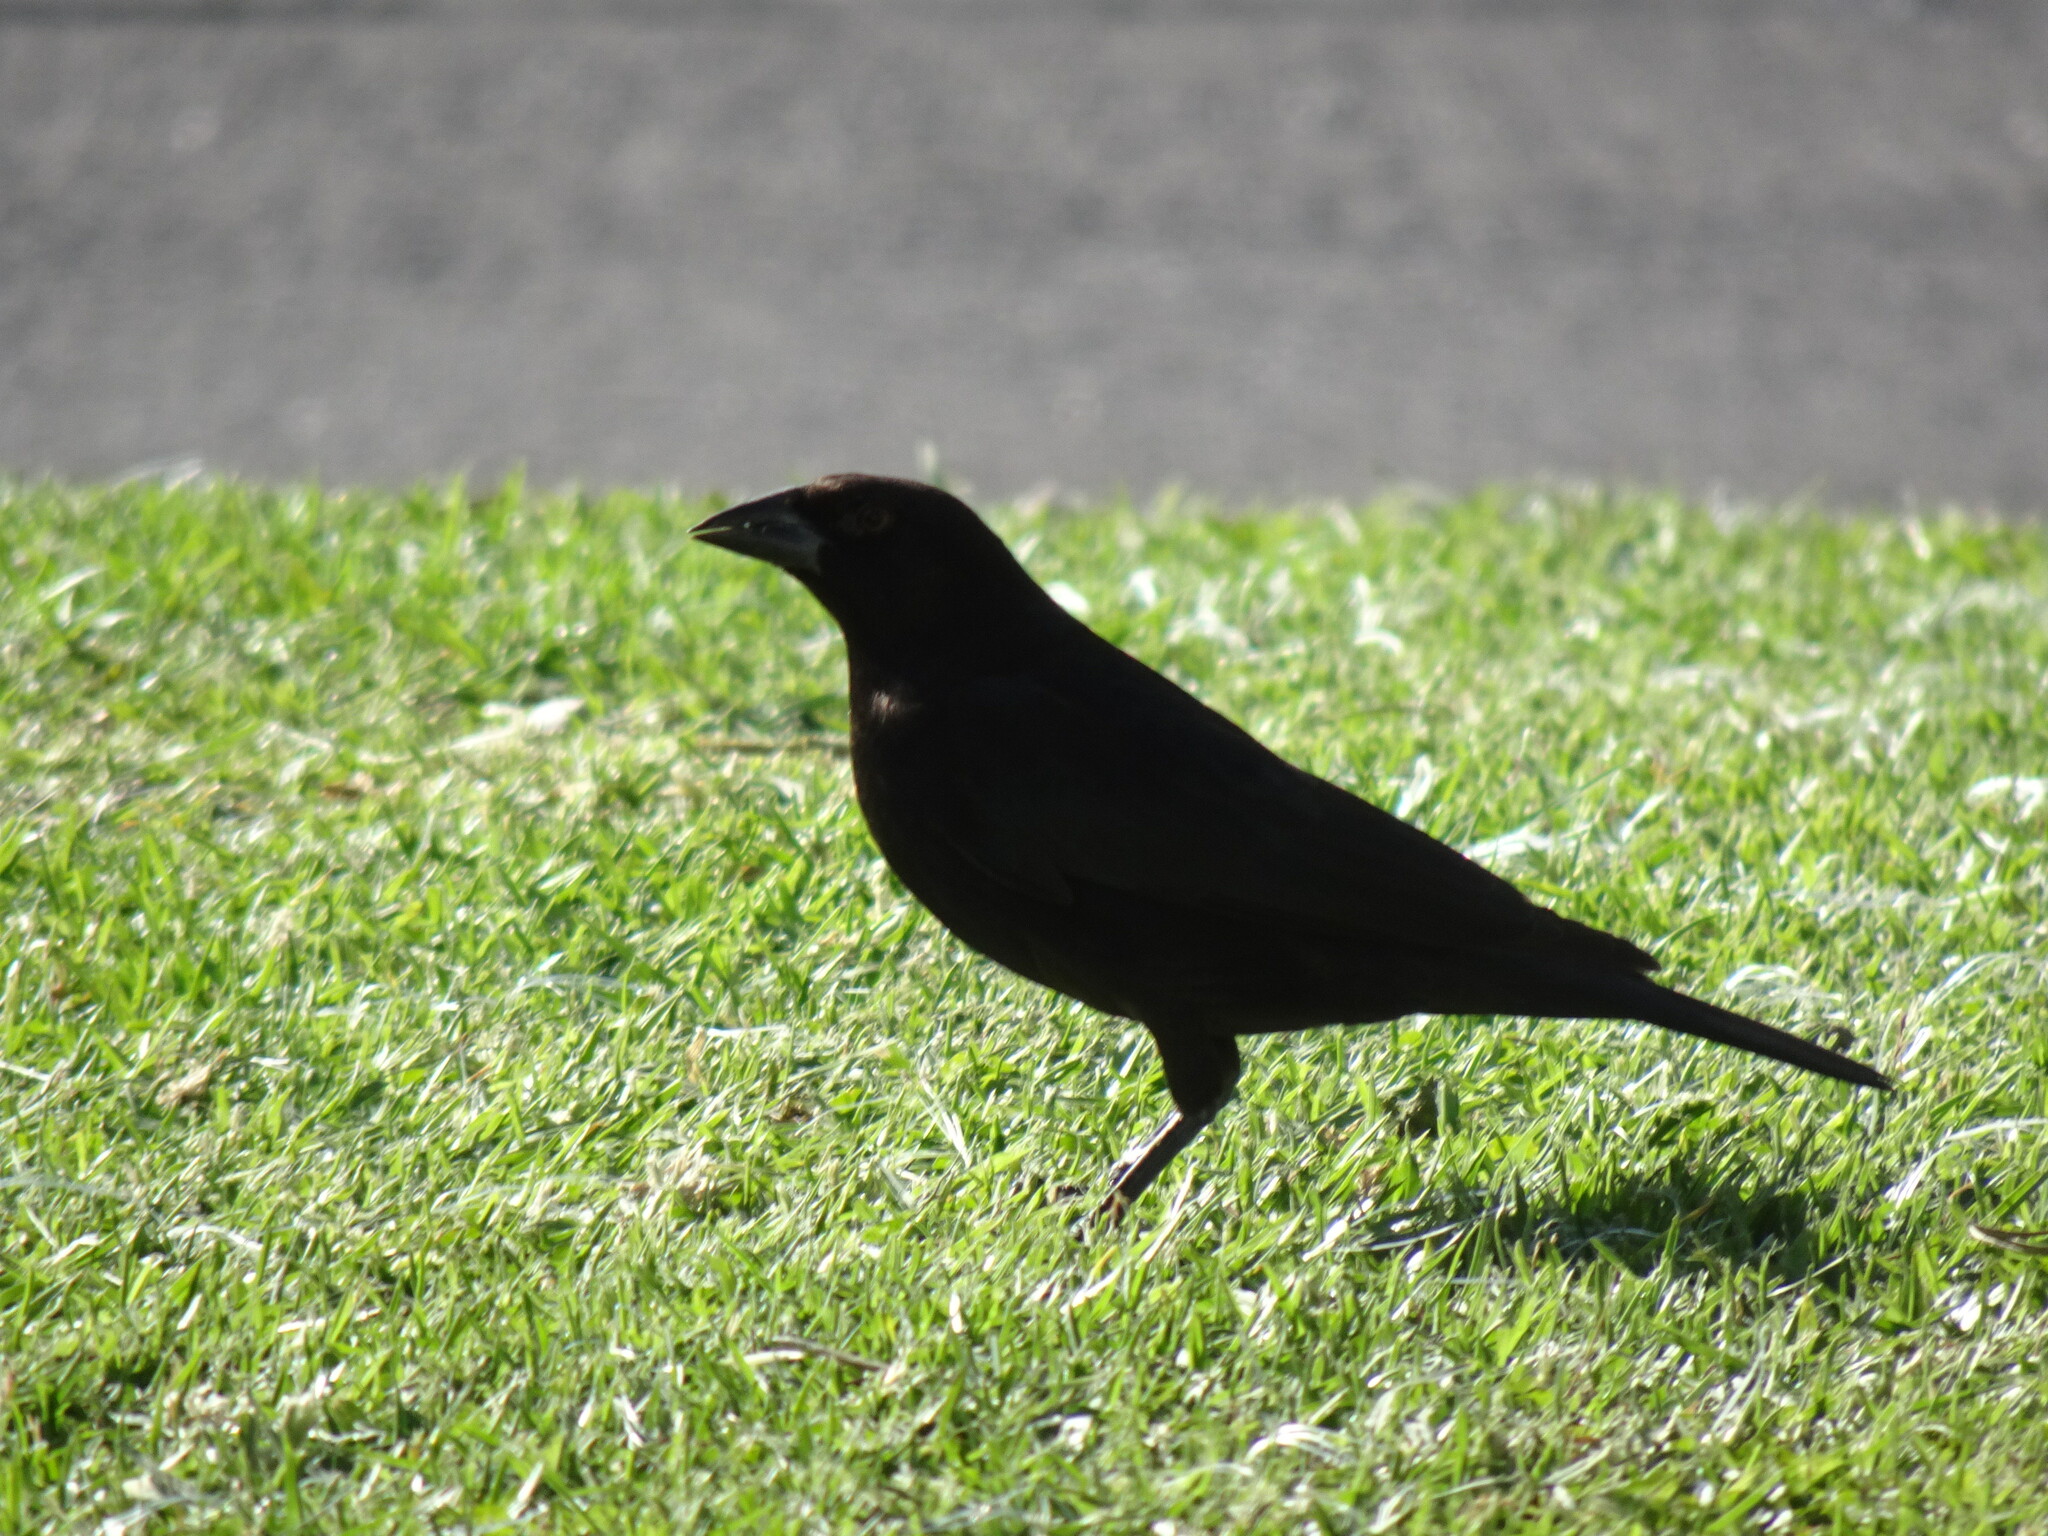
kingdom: Animalia
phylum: Chordata
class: Aves
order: Passeriformes
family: Icteridae
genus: Molothrus
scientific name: Molothrus aeneus
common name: Bronzed cowbird
